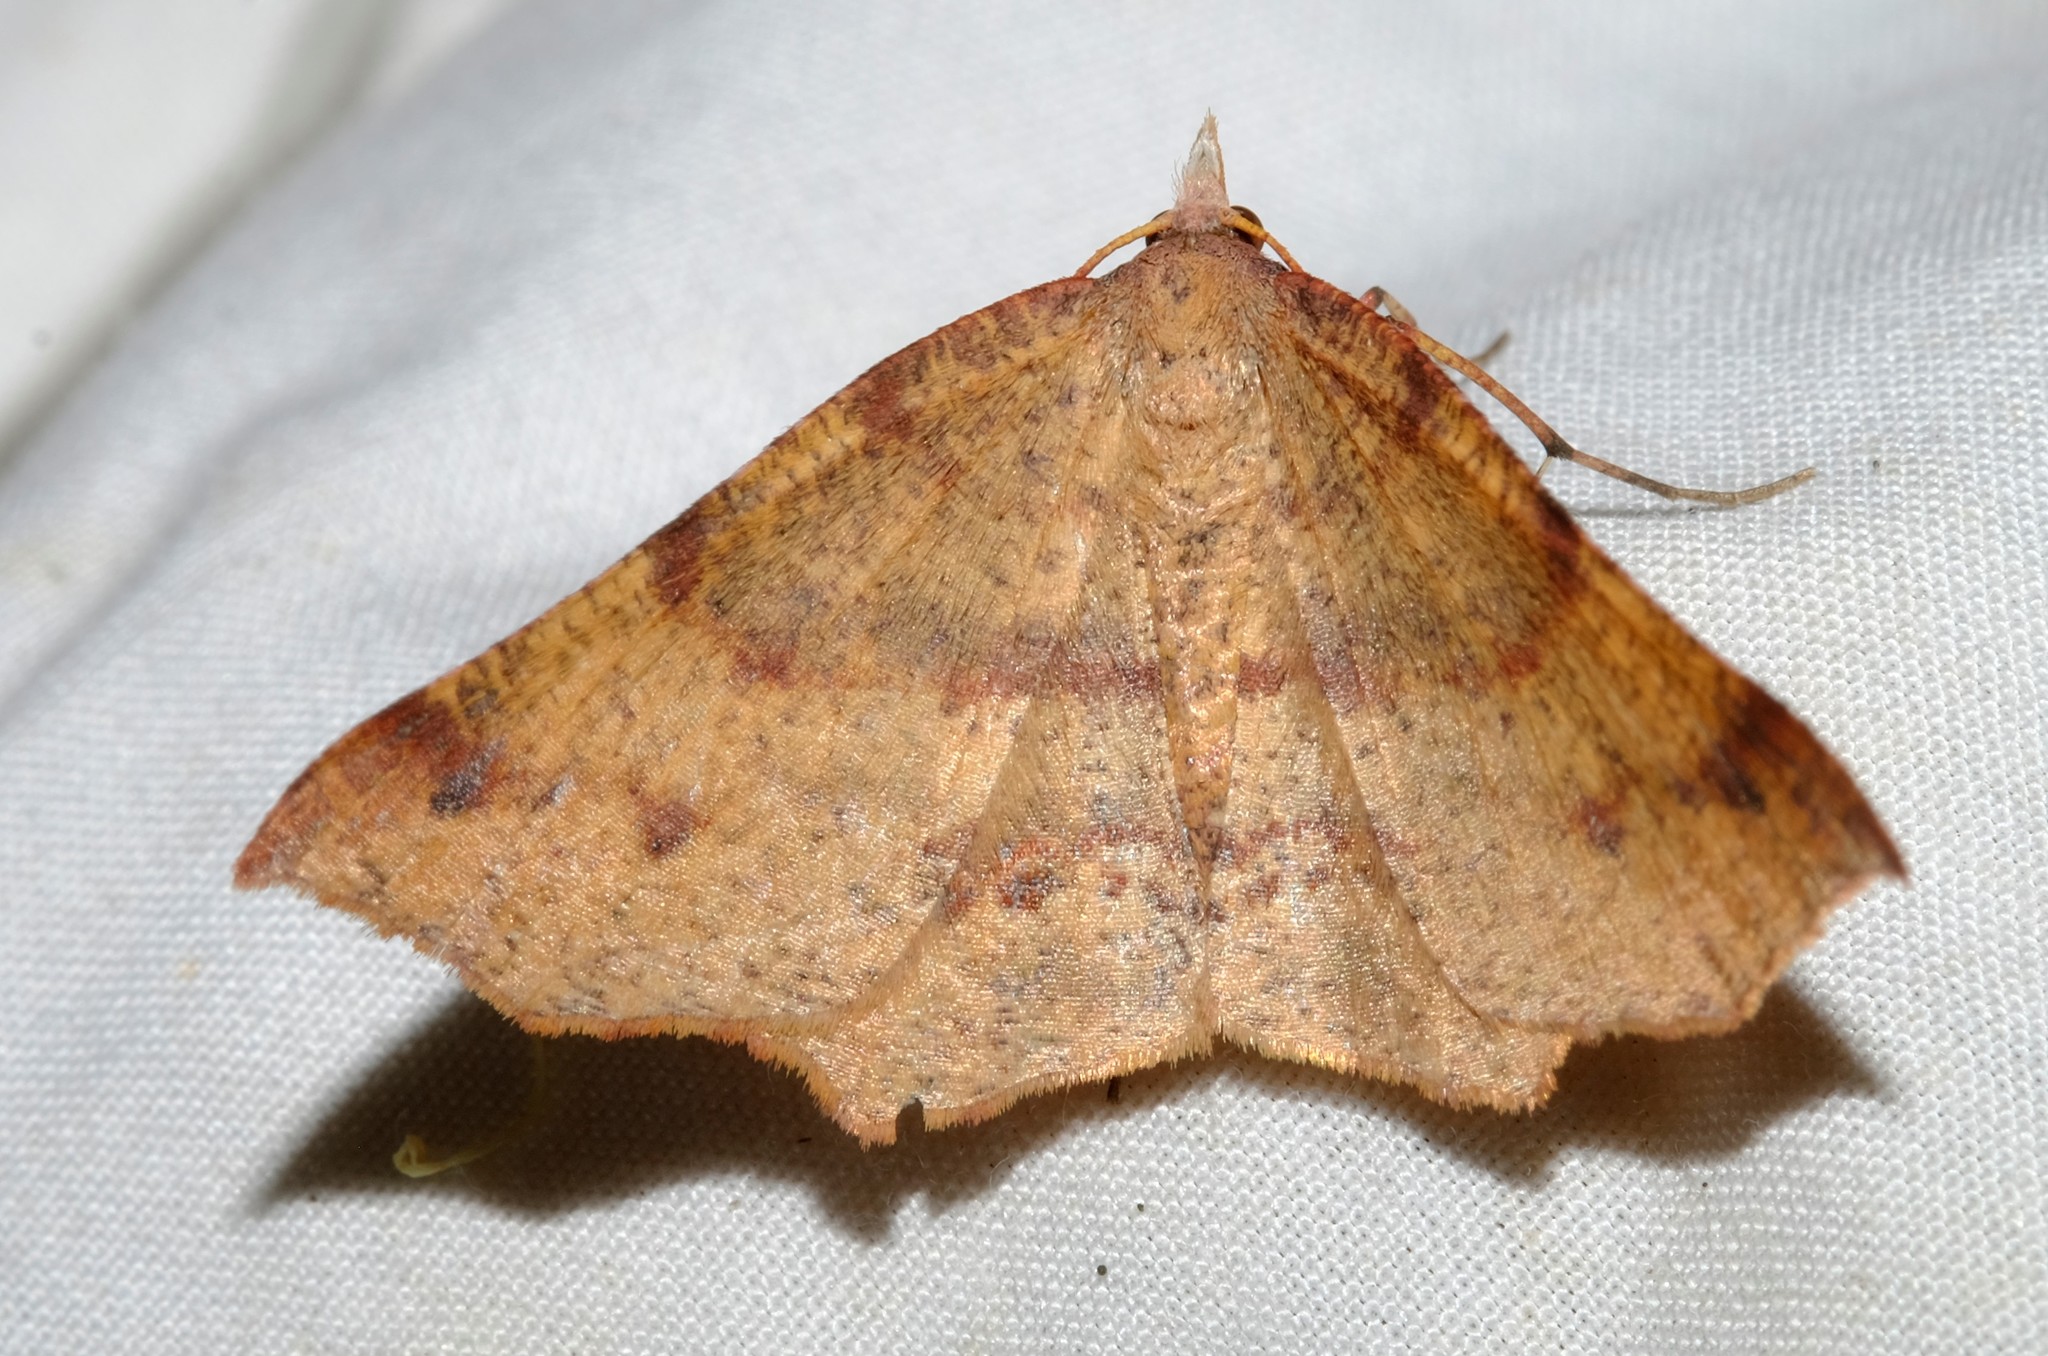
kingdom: Animalia
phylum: Arthropoda
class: Insecta
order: Lepidoptera
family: Geometridae
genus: Rhinodia
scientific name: Rhinodia rostraria
